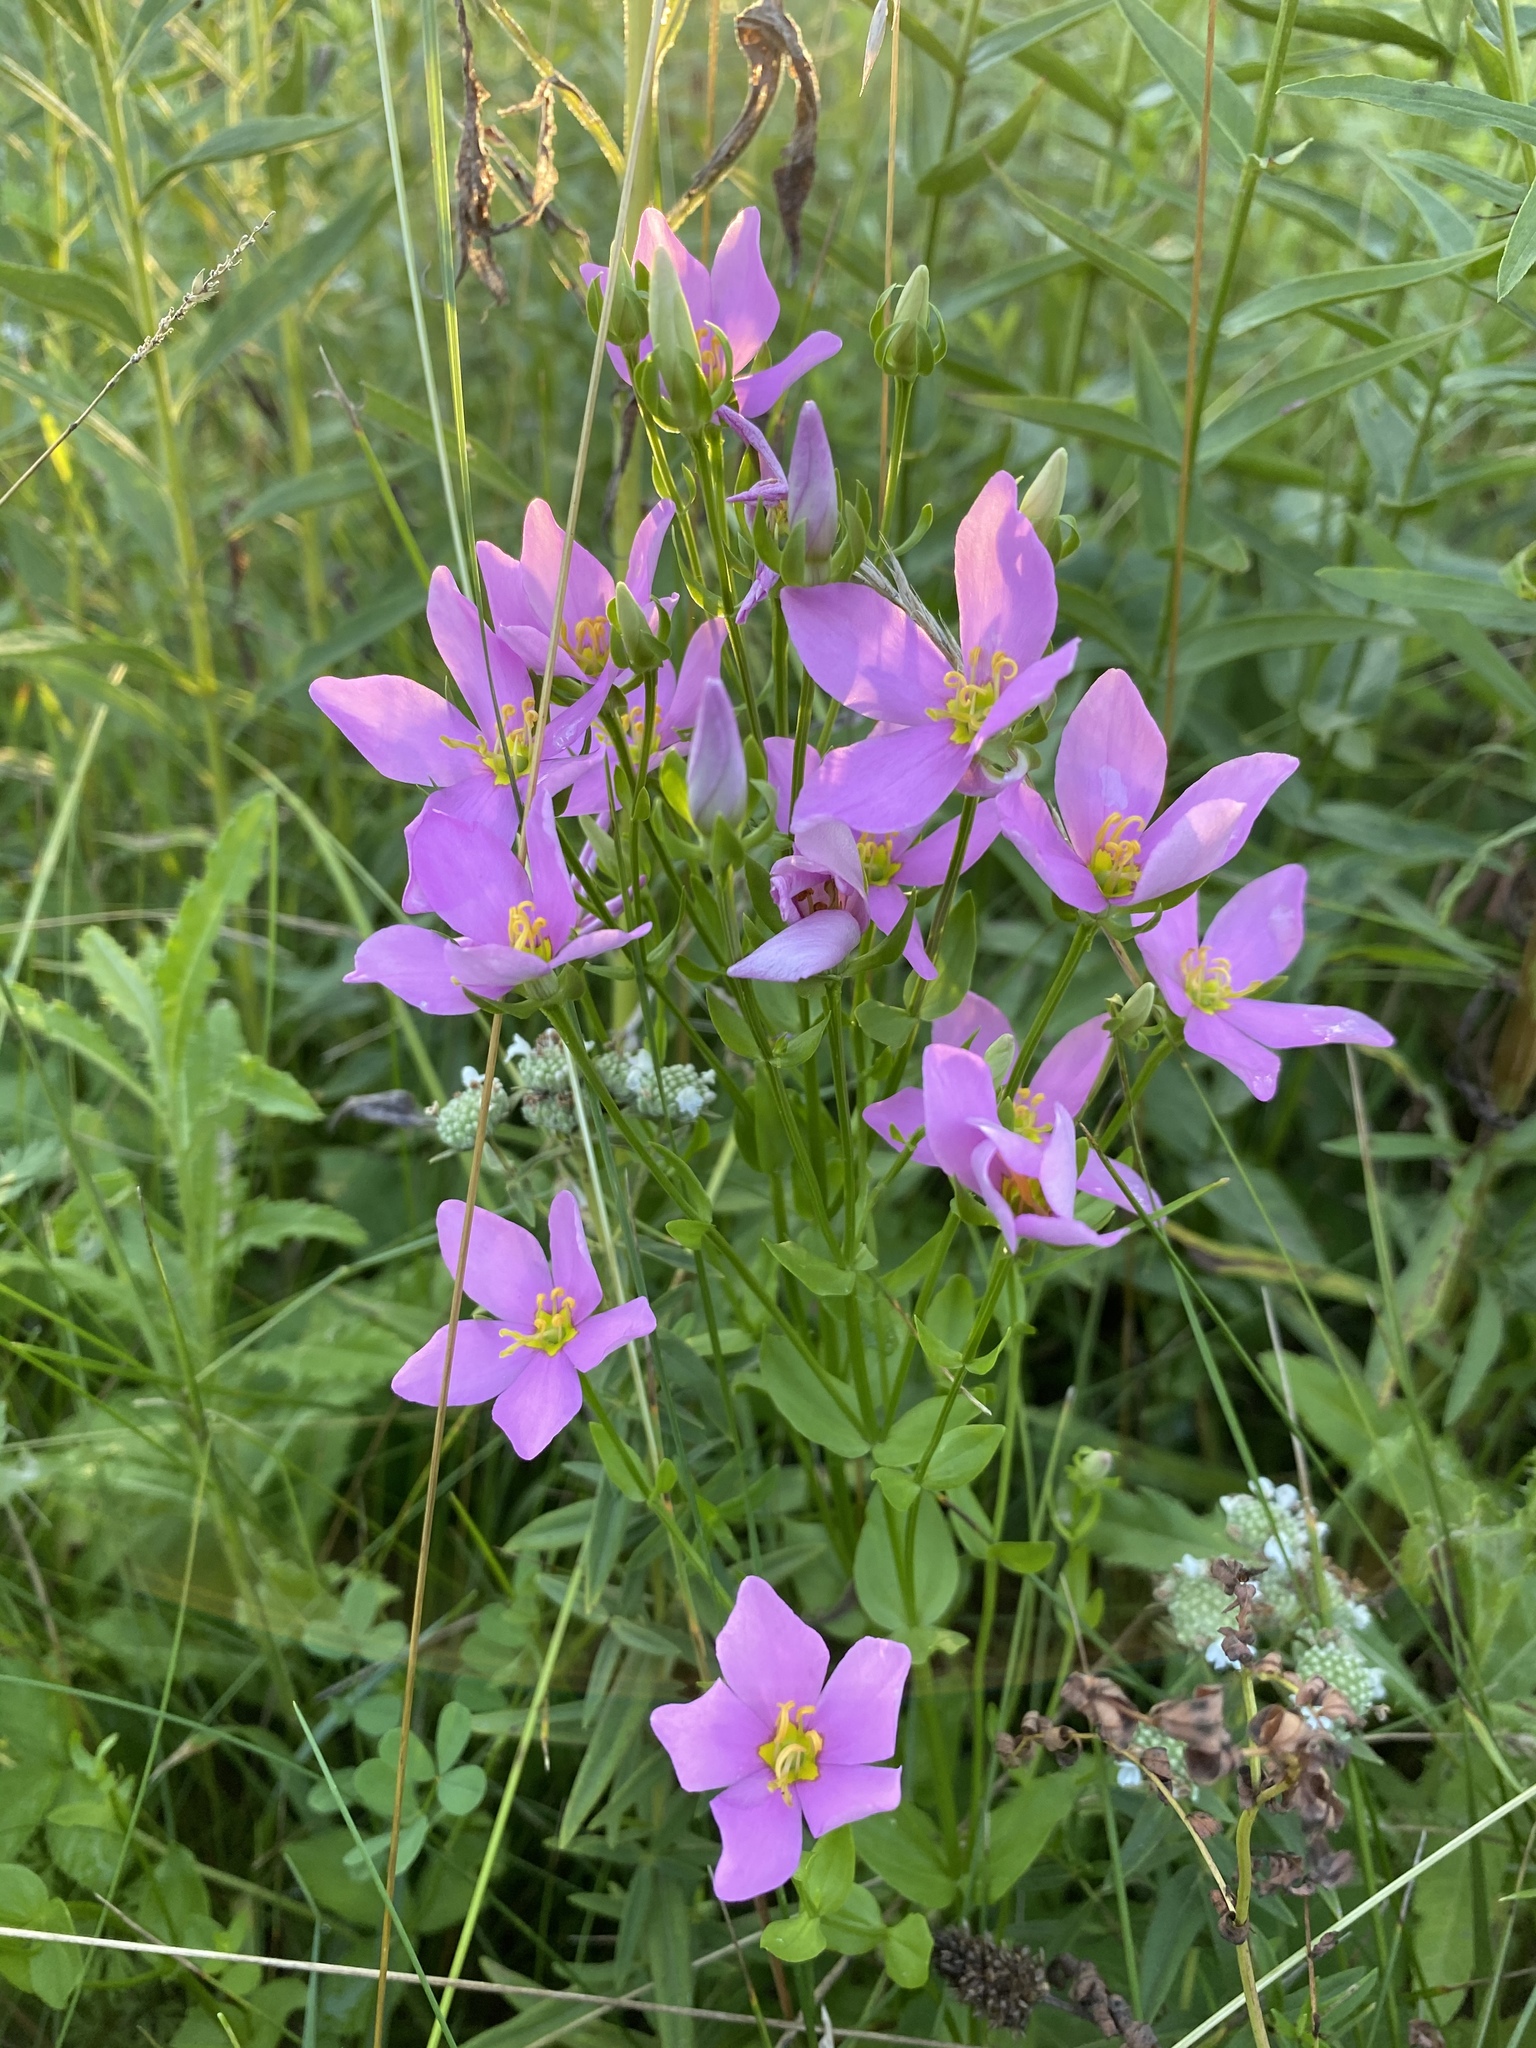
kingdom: Plantae
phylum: Tracheophyta
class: Magnoliopsida
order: Gentianales
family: Gentianaceae
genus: Sabatia
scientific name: Sabatia angularis
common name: Rose-pink
